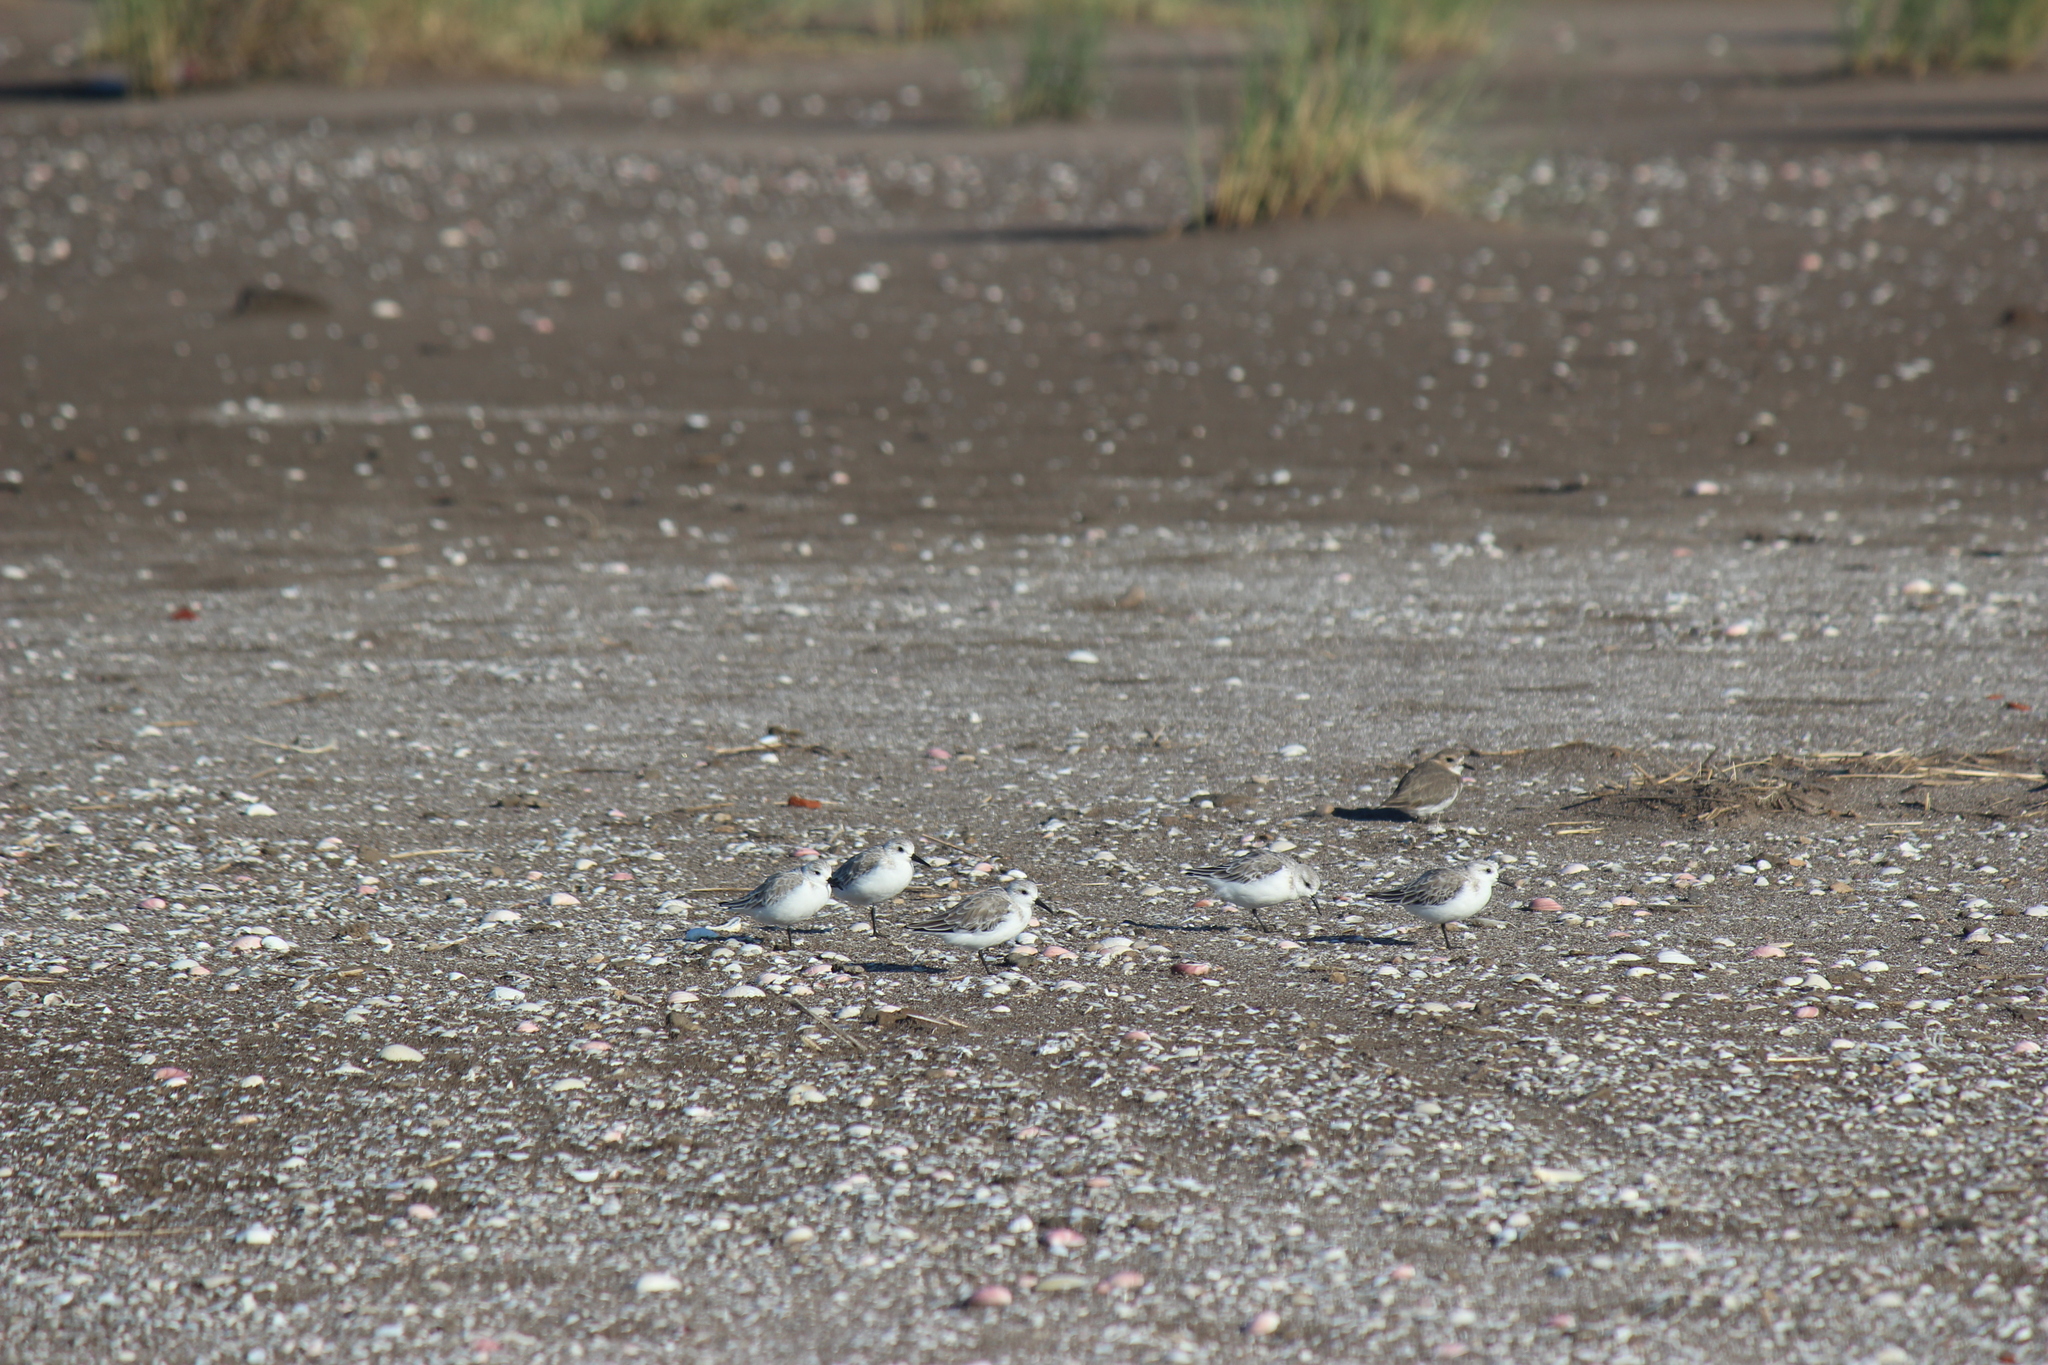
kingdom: Animalia
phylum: Chordata
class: Aves
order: Charadriiformes
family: Scolopacidae
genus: Calidris
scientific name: Calidris alba
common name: Sanderling
